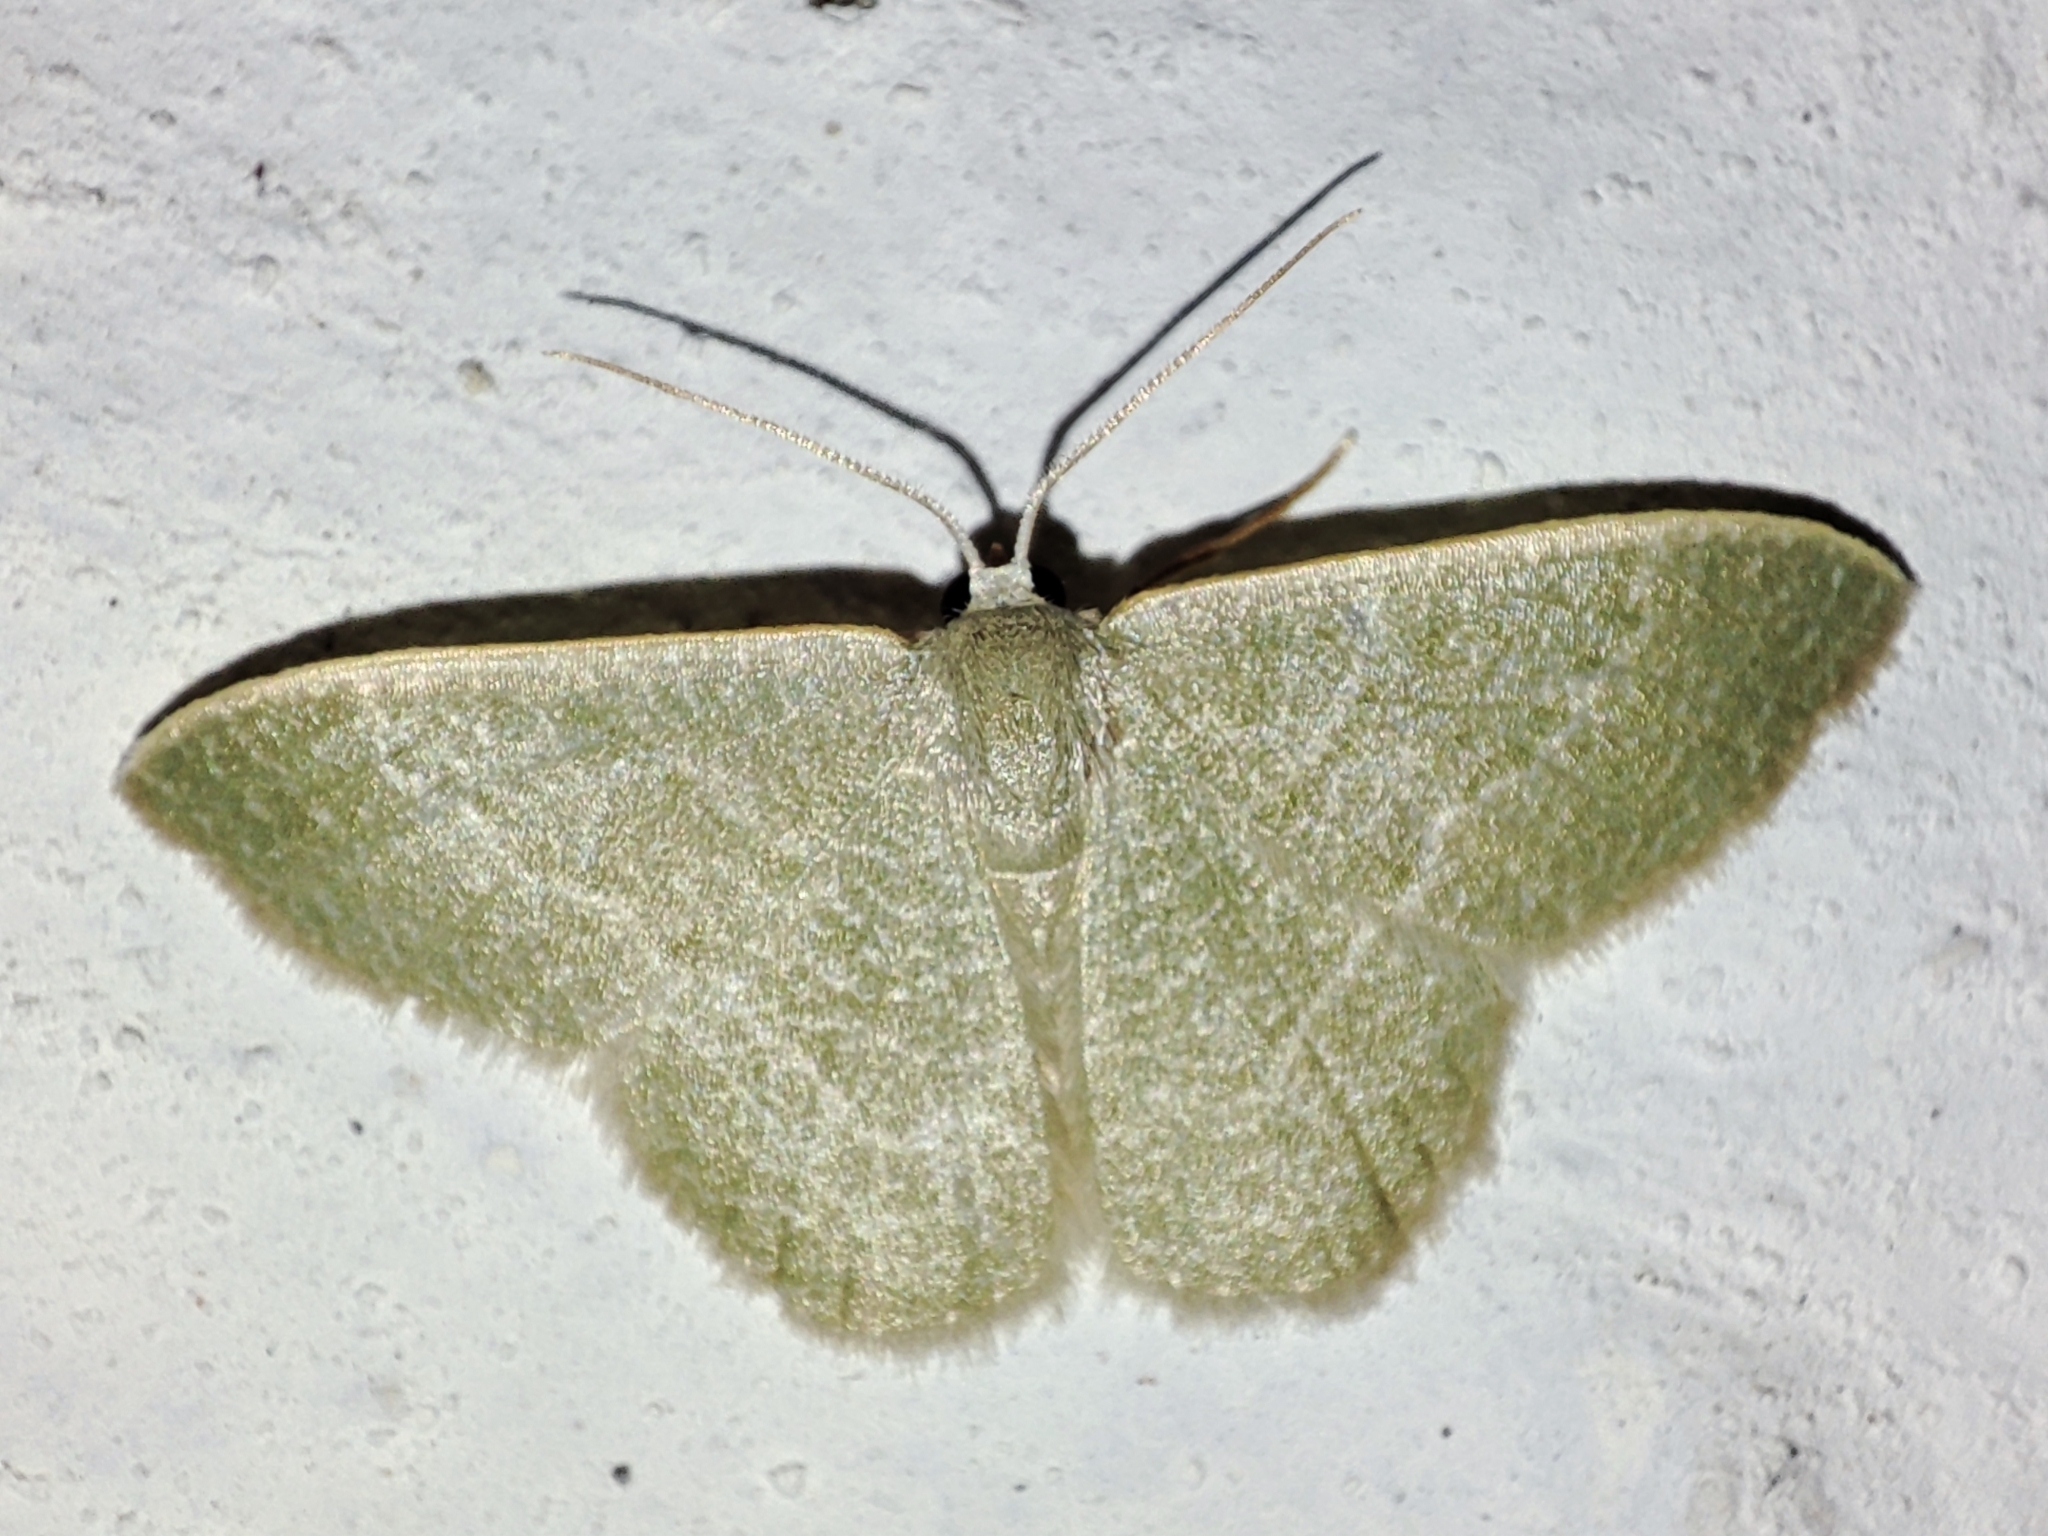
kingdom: Animalia
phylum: Arthropoda
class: Insecta
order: Lepidoptera
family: Geometridae
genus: Chlorissa
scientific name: Chlorissa etruscaria
